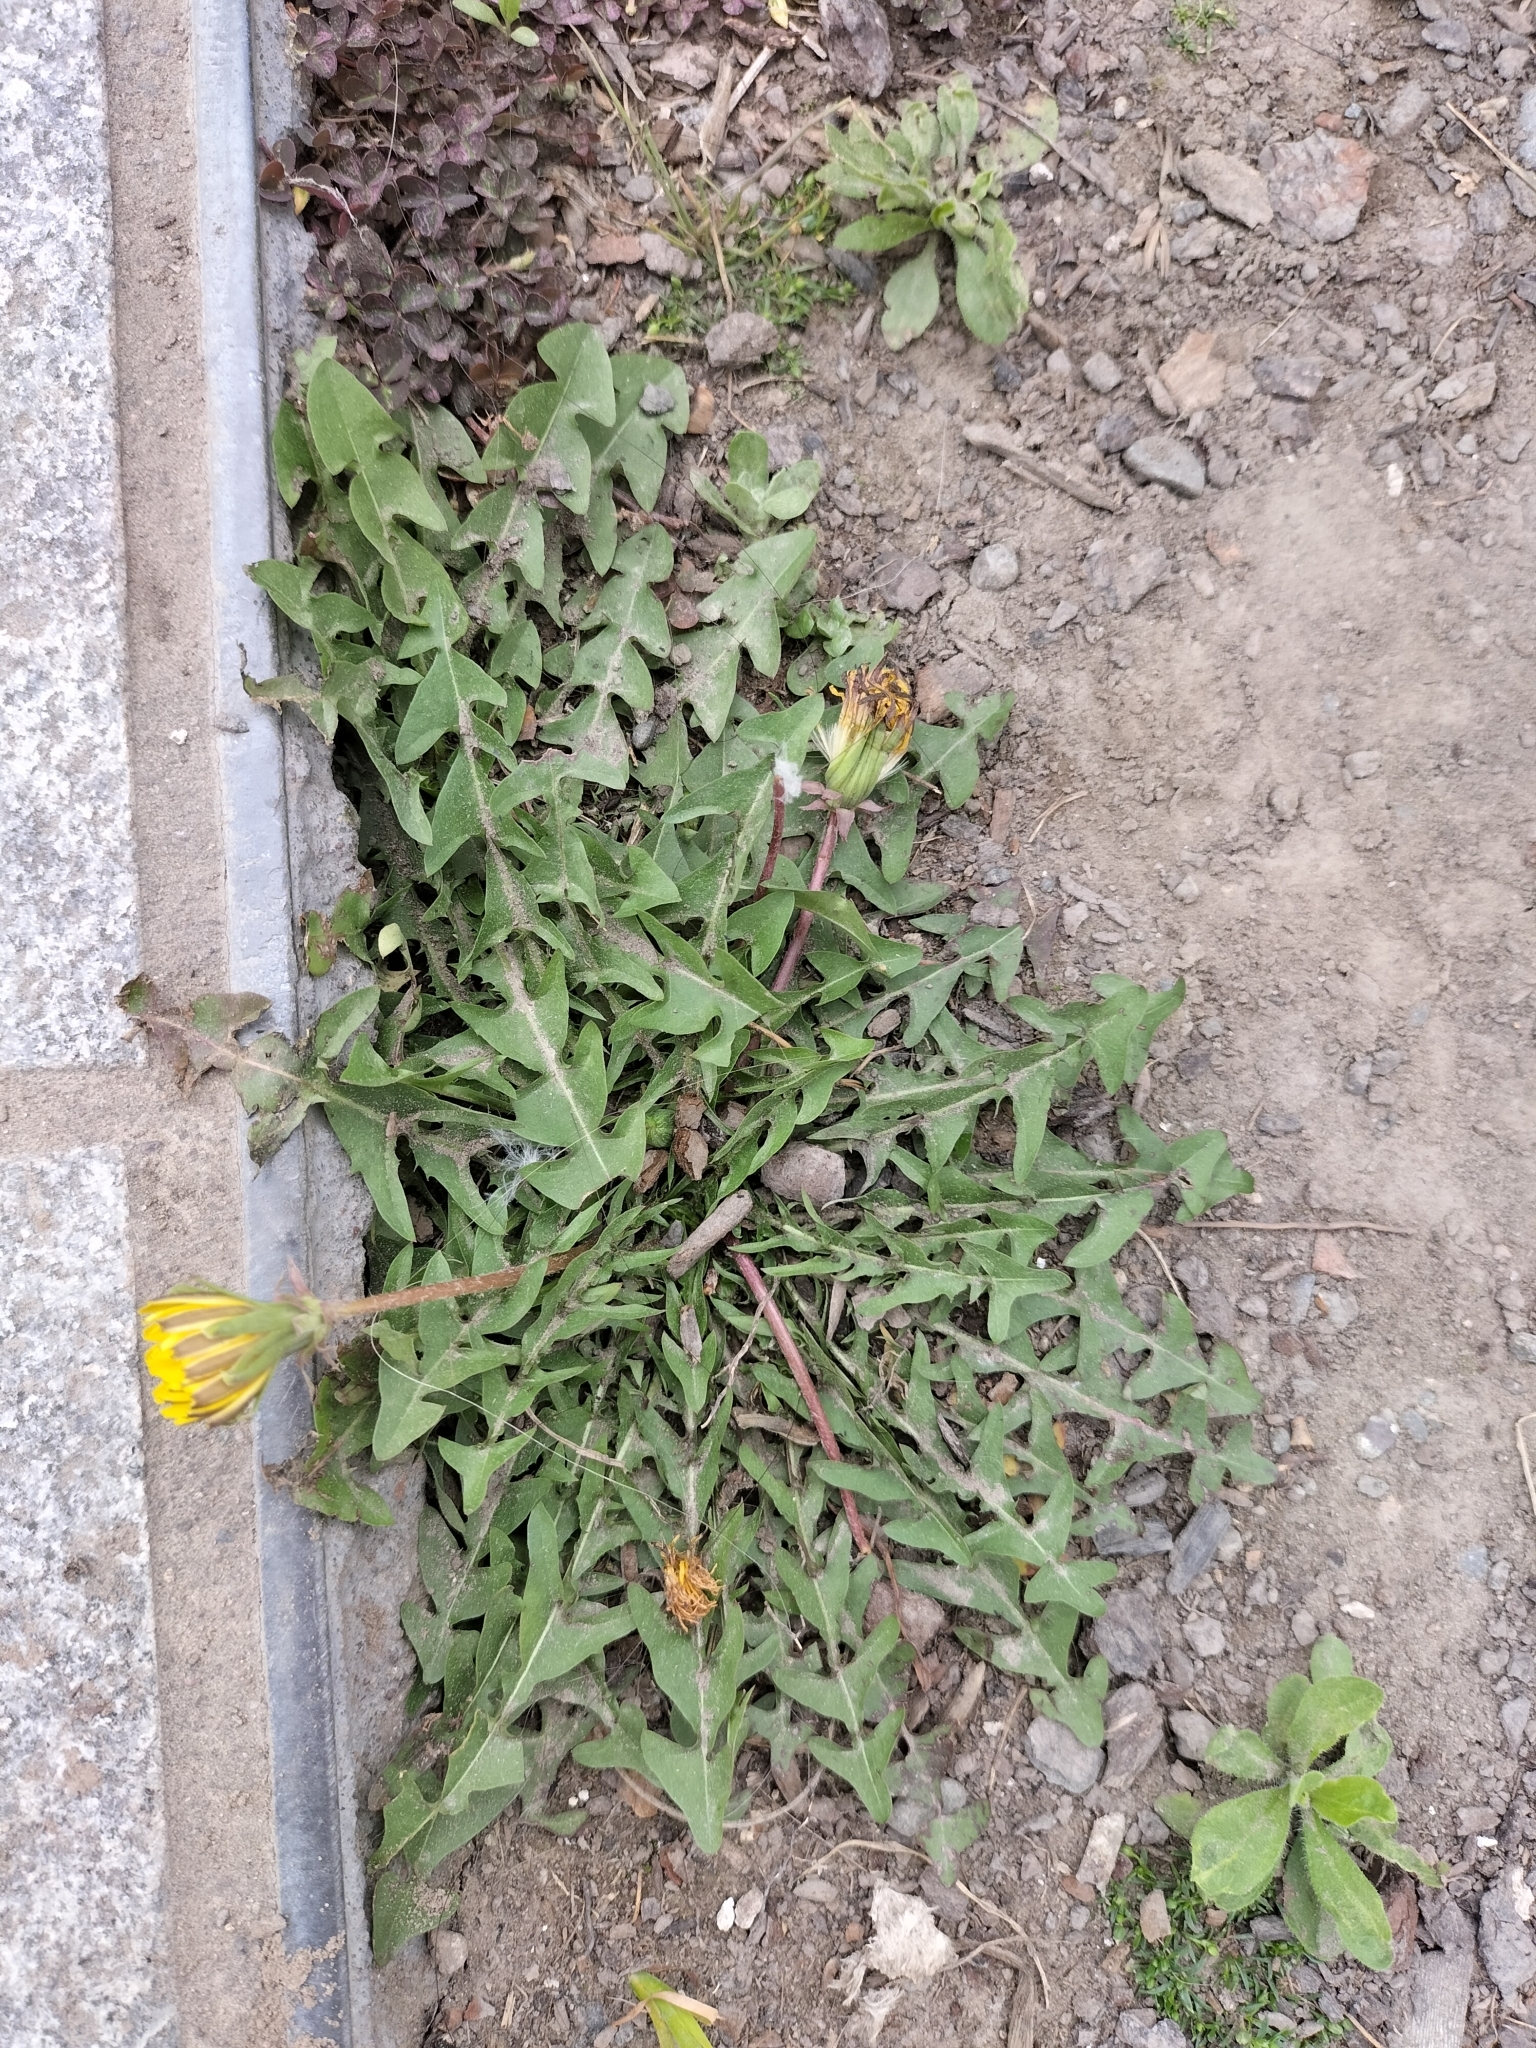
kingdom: Plantae
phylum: Tracheophyta
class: Magnoliopsida
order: Asterales
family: Asteraceae
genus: Taraxacum
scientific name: Taraxacum officinale
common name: Common dandelion
